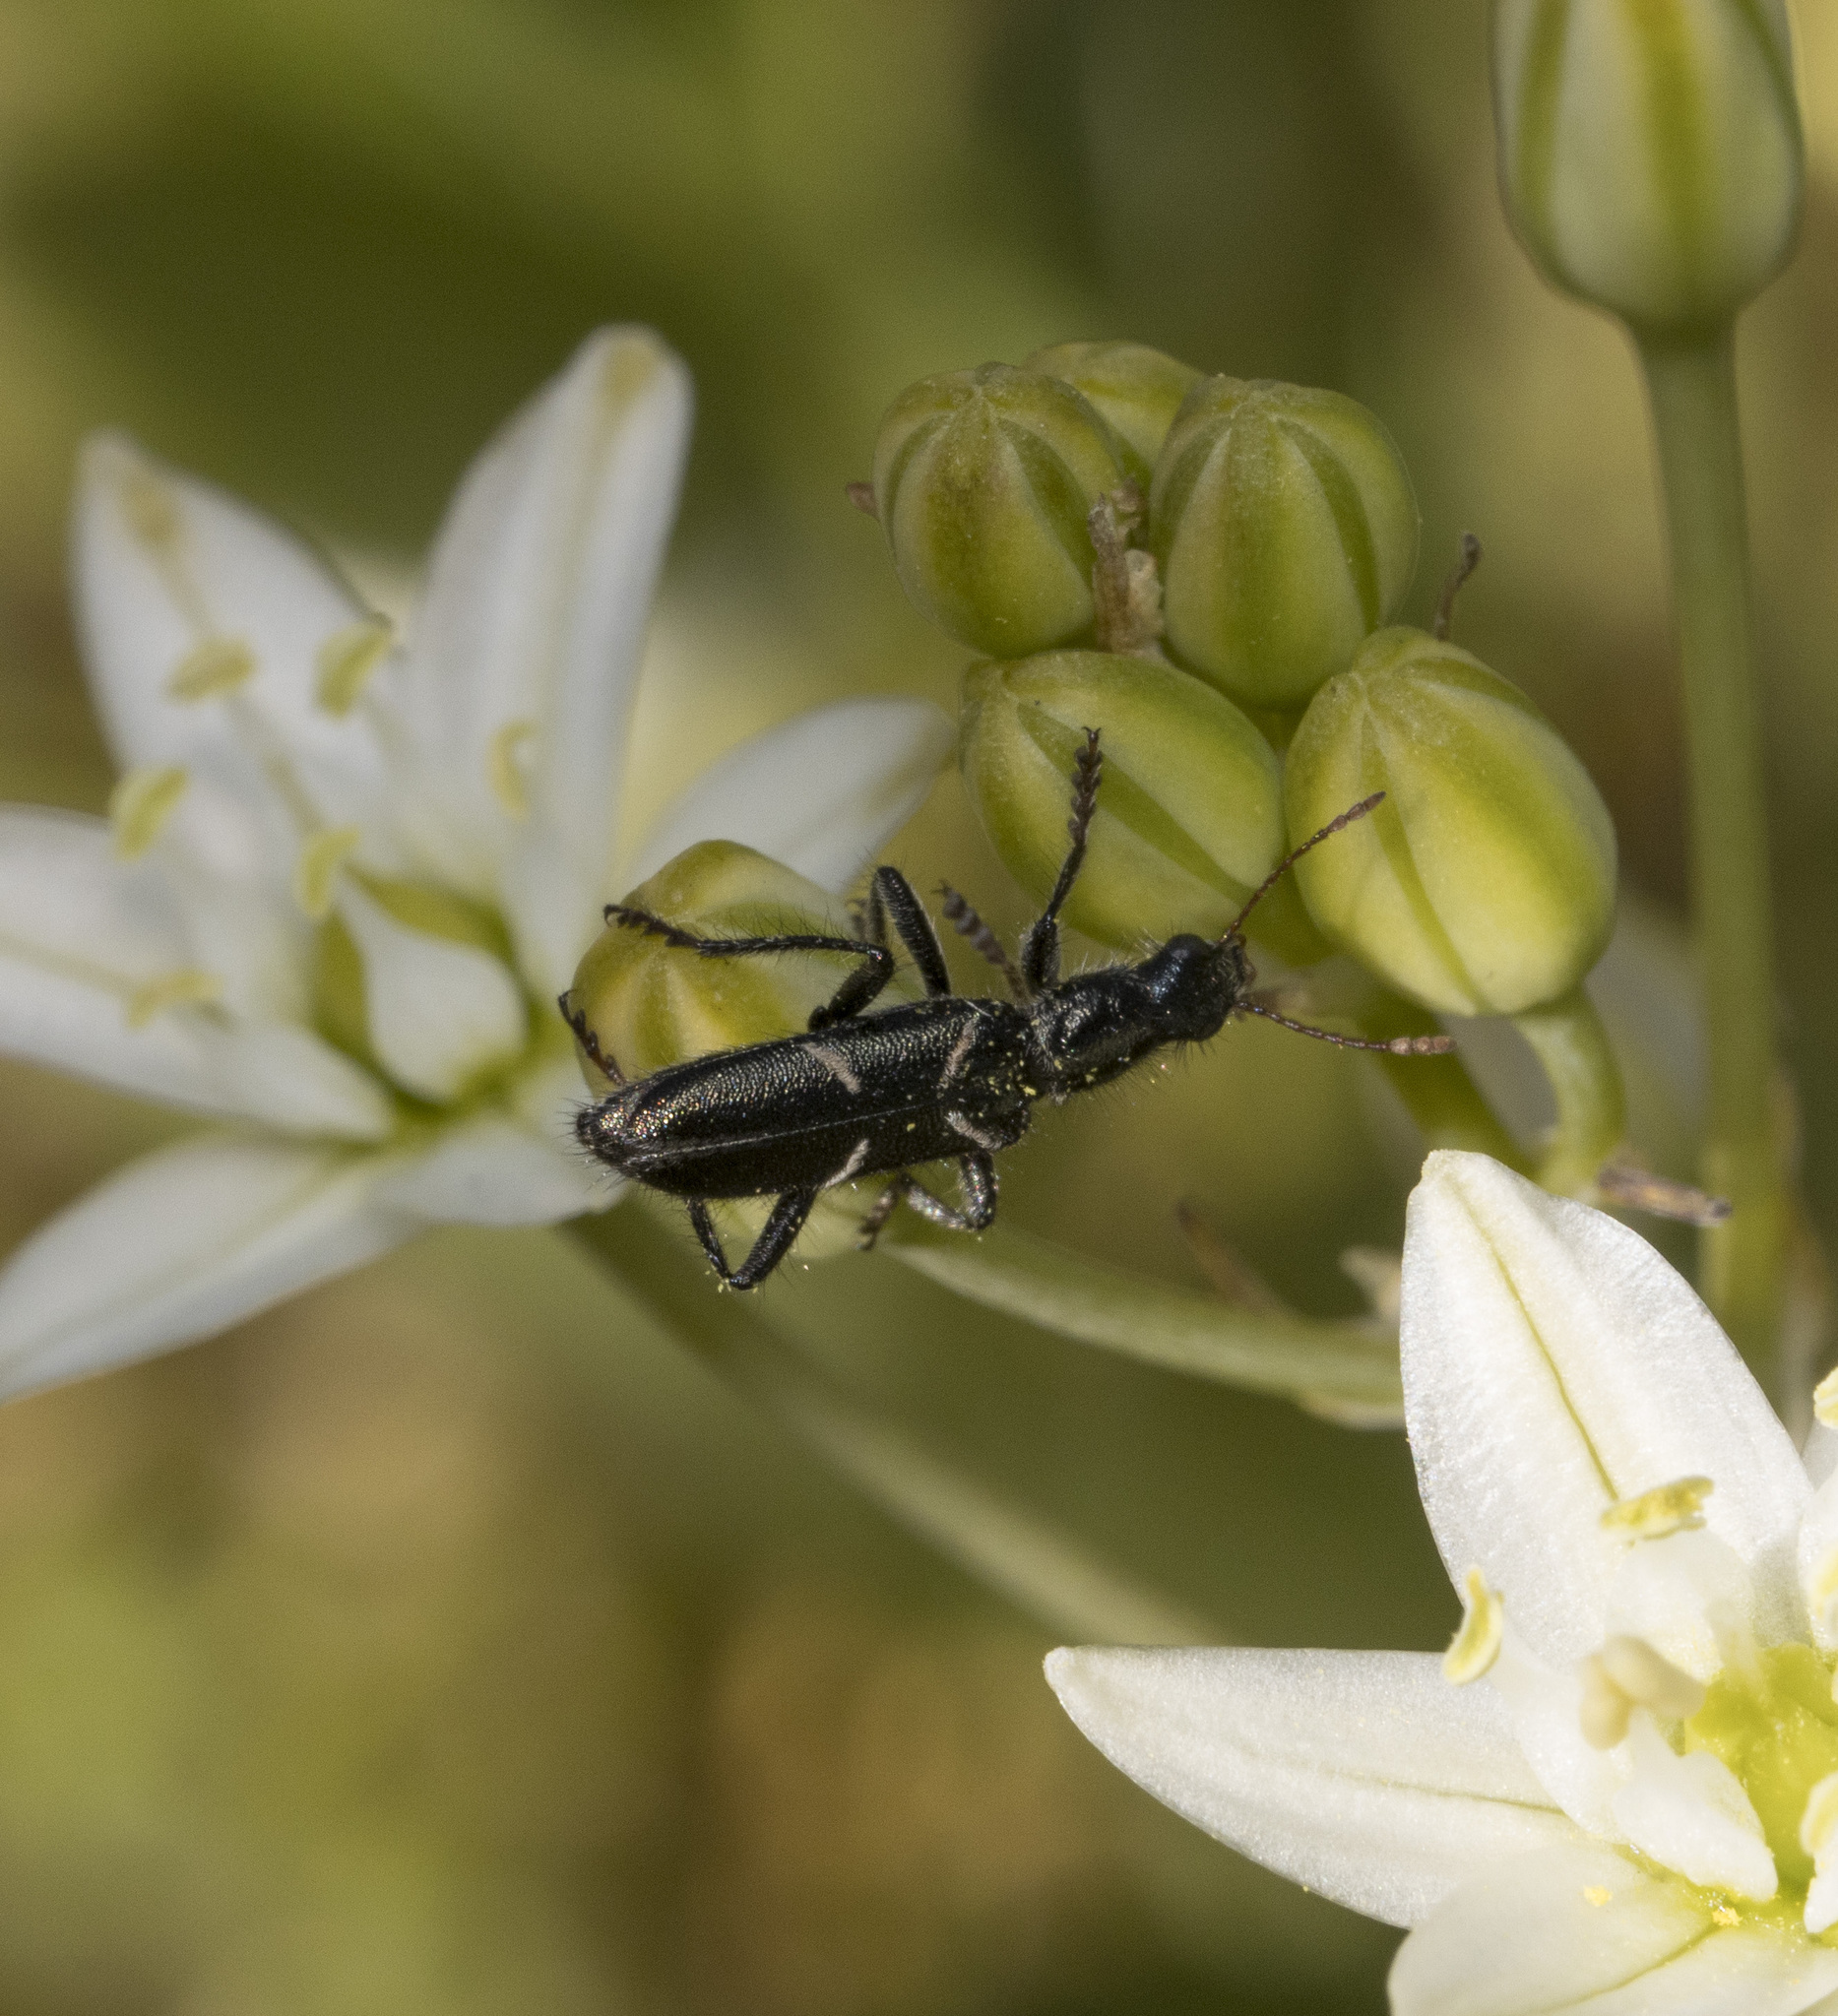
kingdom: Animalia
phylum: Arthropoda
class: Insecta
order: Coleoptera
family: Cleridae
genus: Epiclines
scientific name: Epiclines
